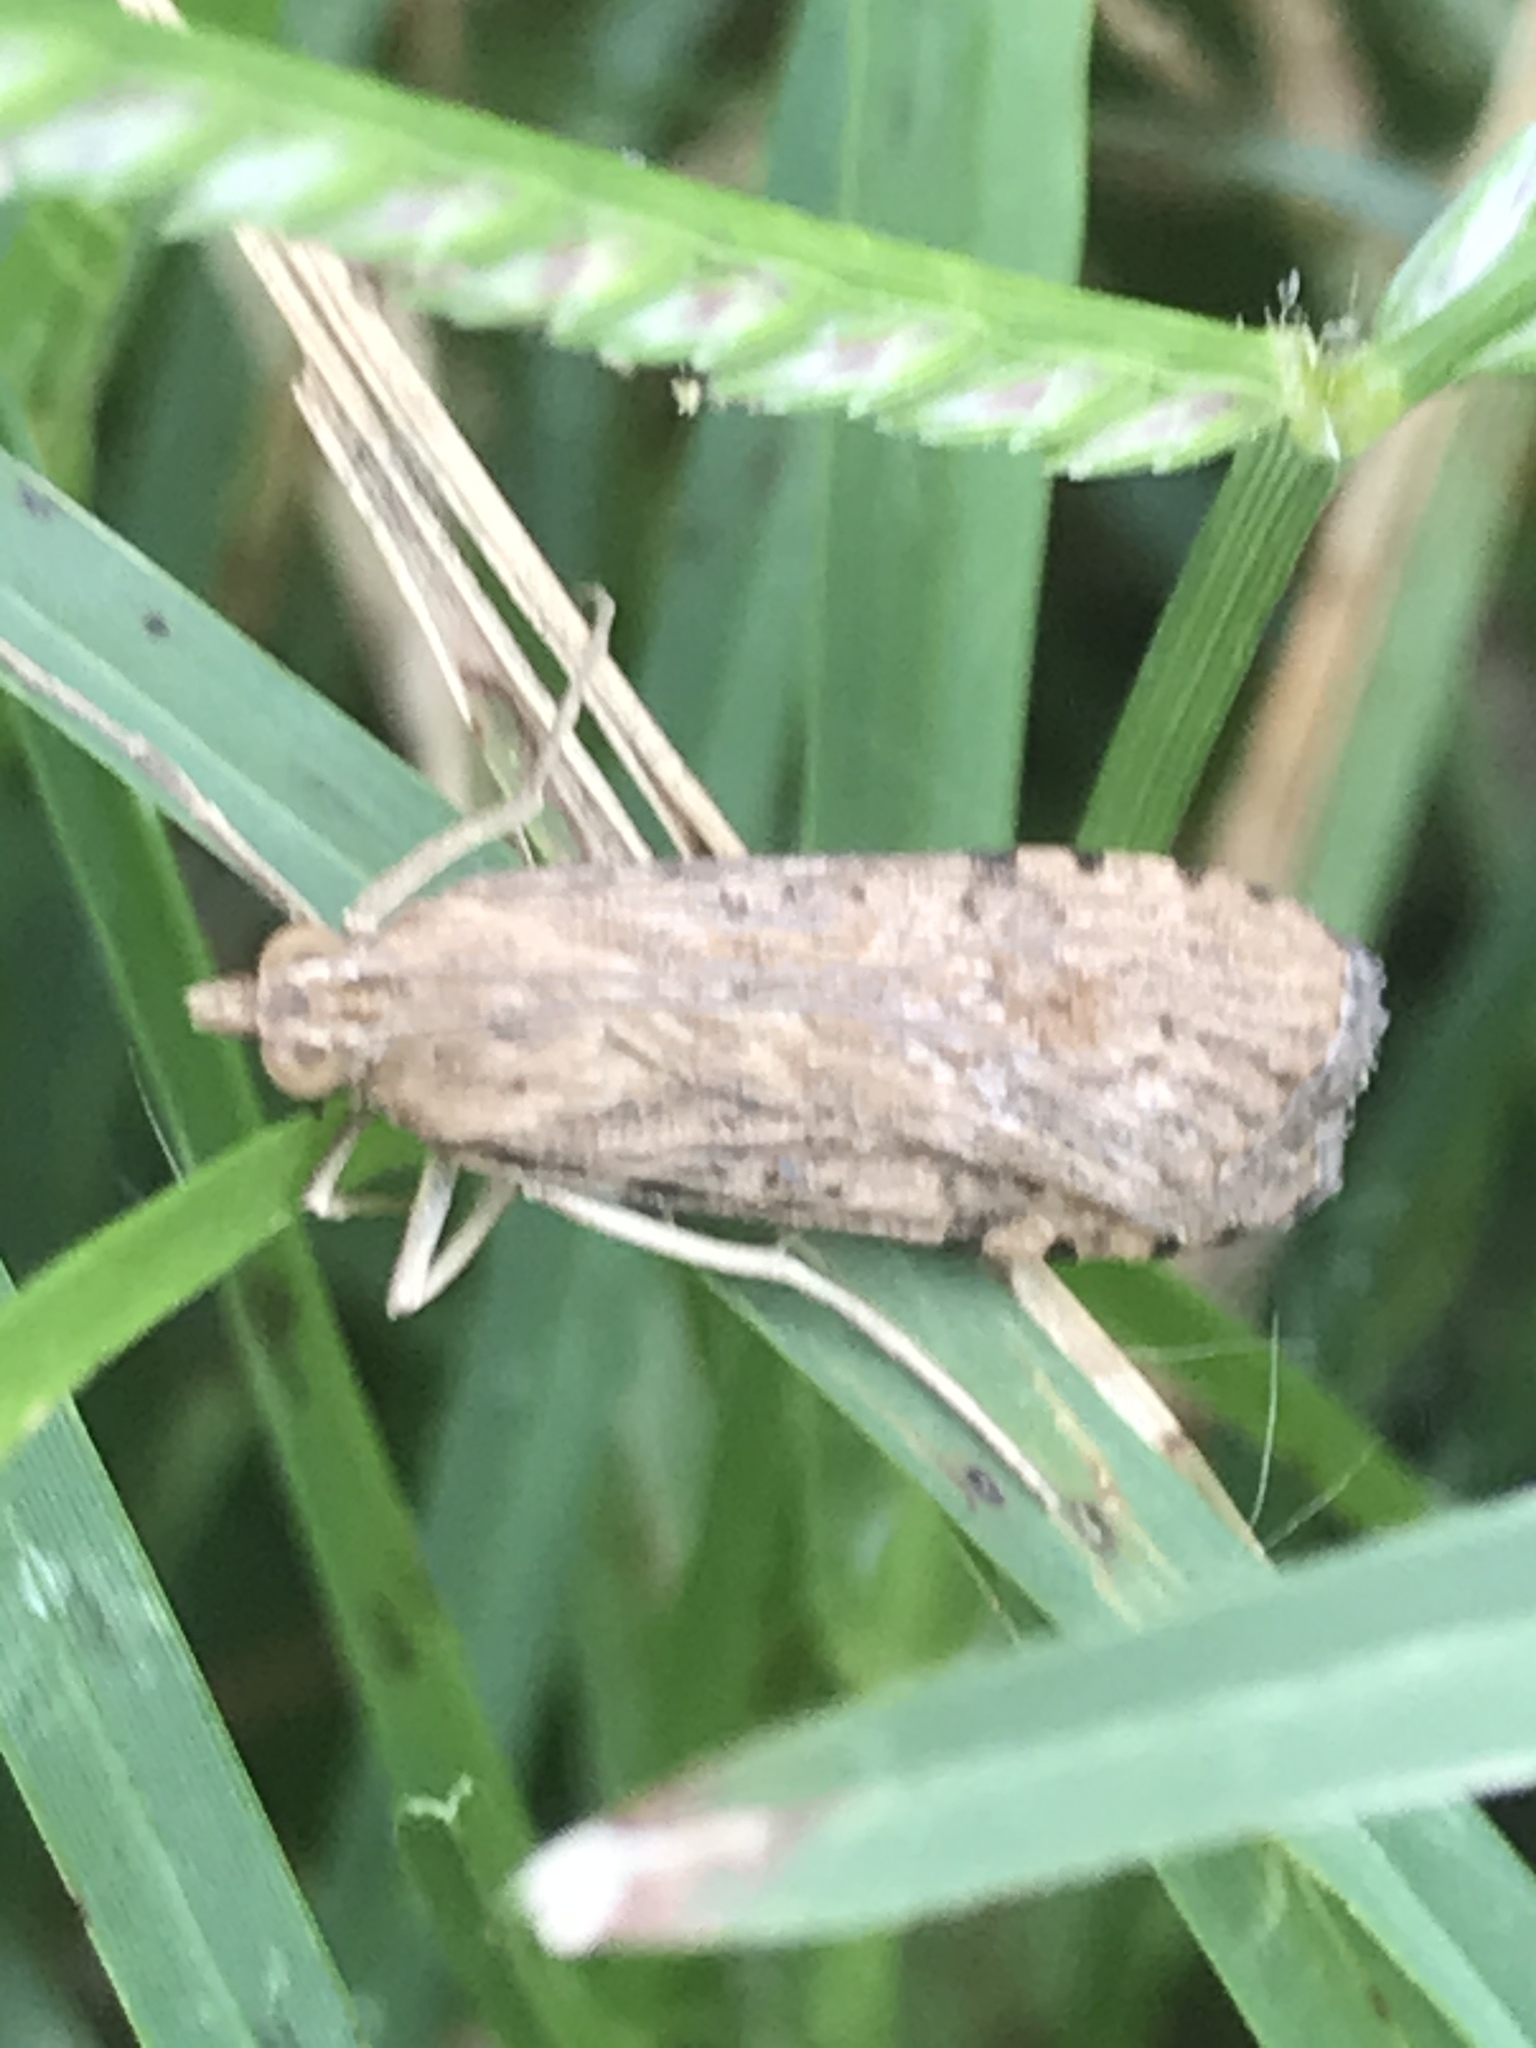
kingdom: Animalia
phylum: Arthropoda
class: Insecta
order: Lepidoptera
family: Crambidae
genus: Nomophila
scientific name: Nomophila nearctica
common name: American rush veneer
